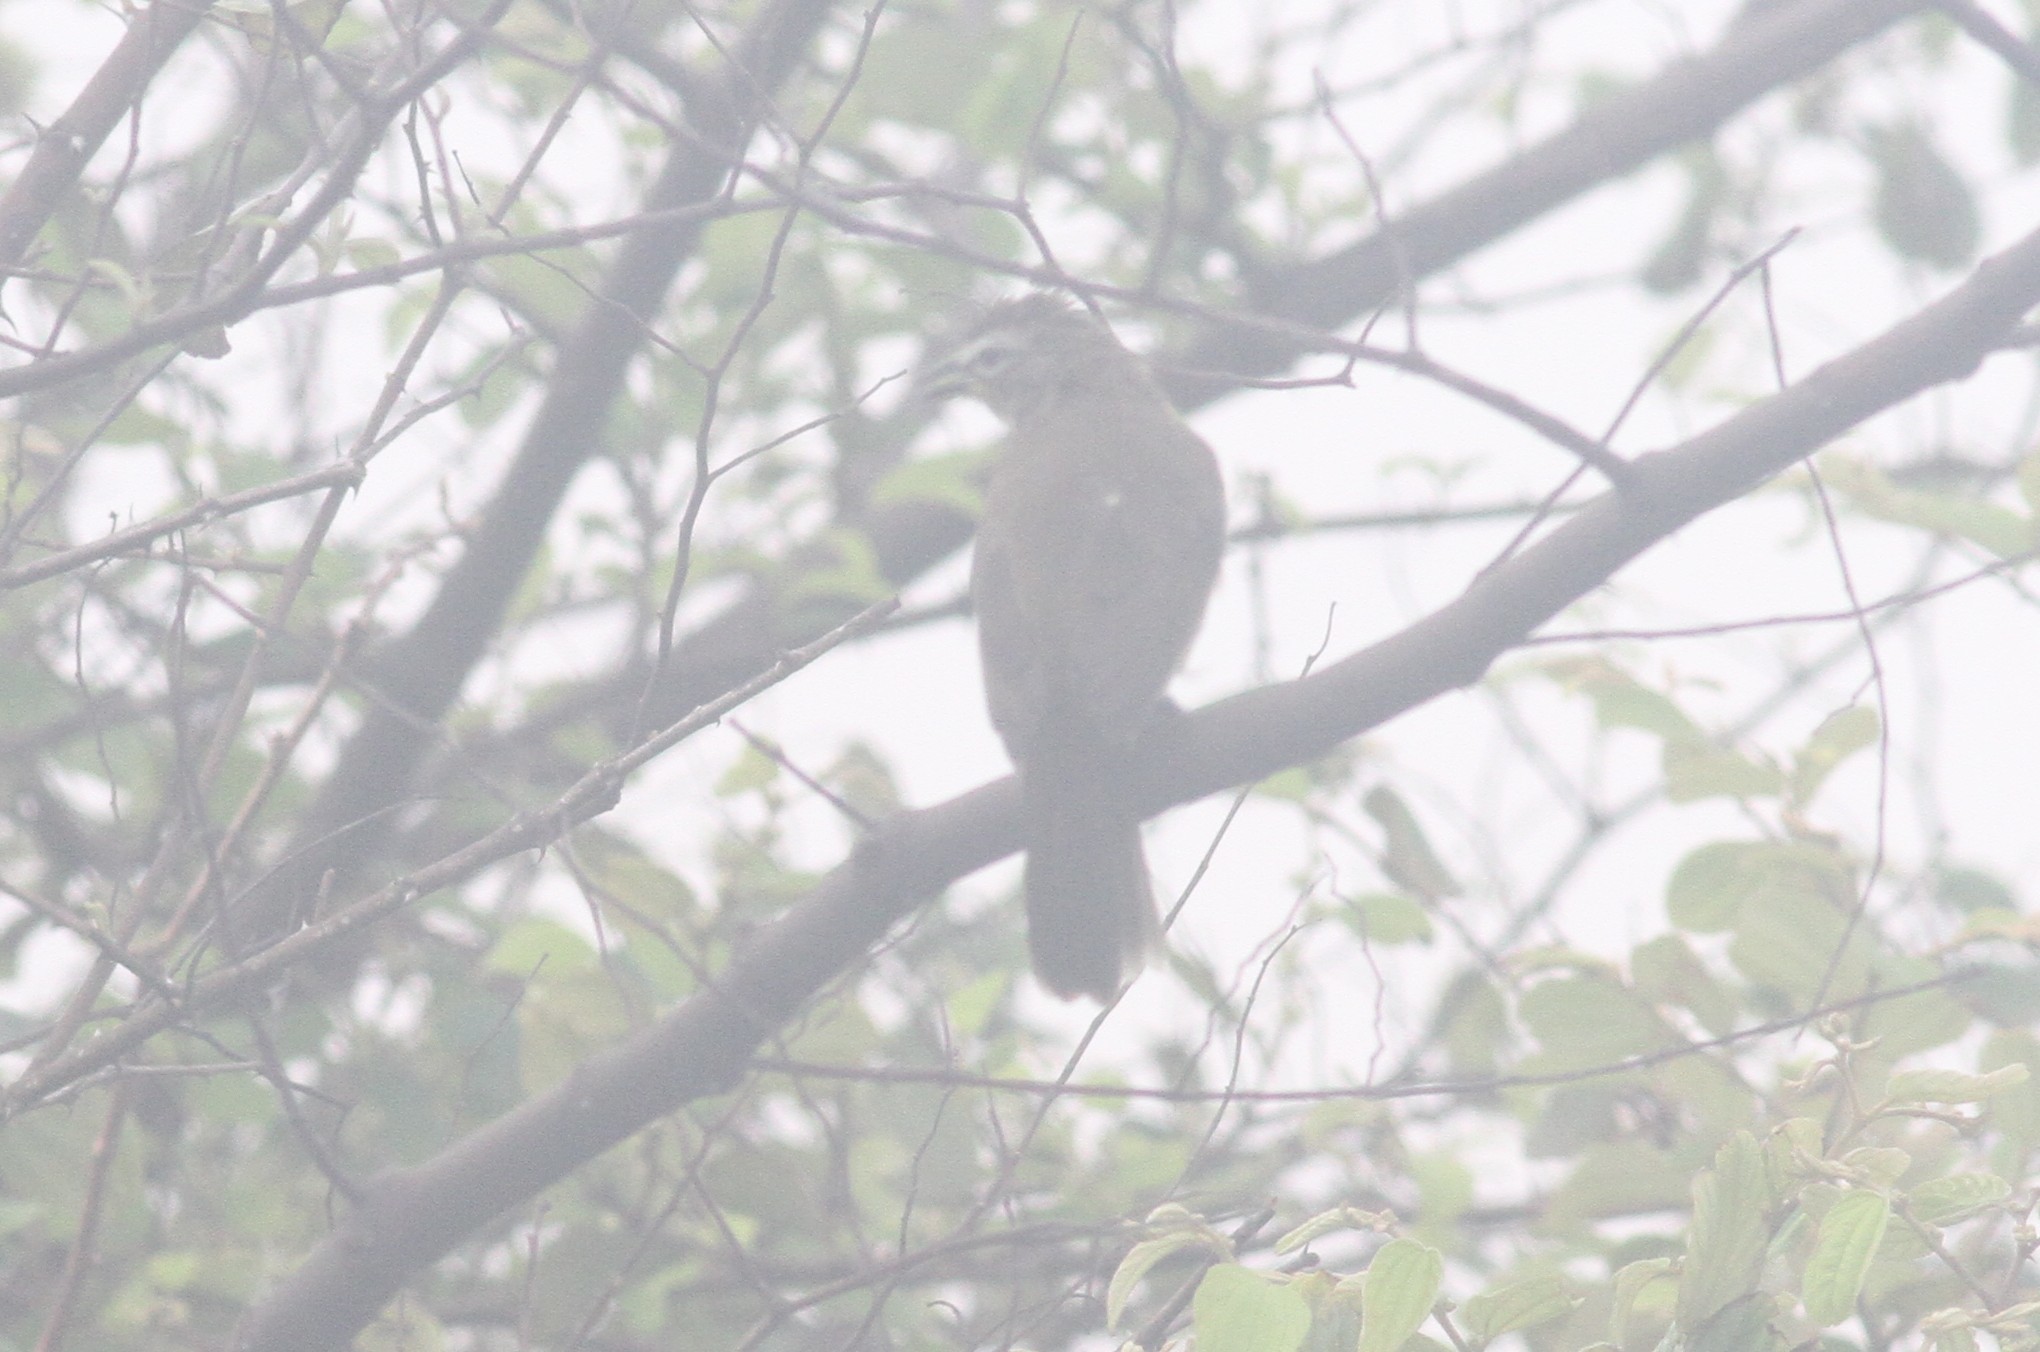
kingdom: Animalia
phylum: Chordata
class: Aves
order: Passeriformes
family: Pycnonotidae
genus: Pycnonotus
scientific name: Pycnonotus luteolus
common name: White-browed bulbul
